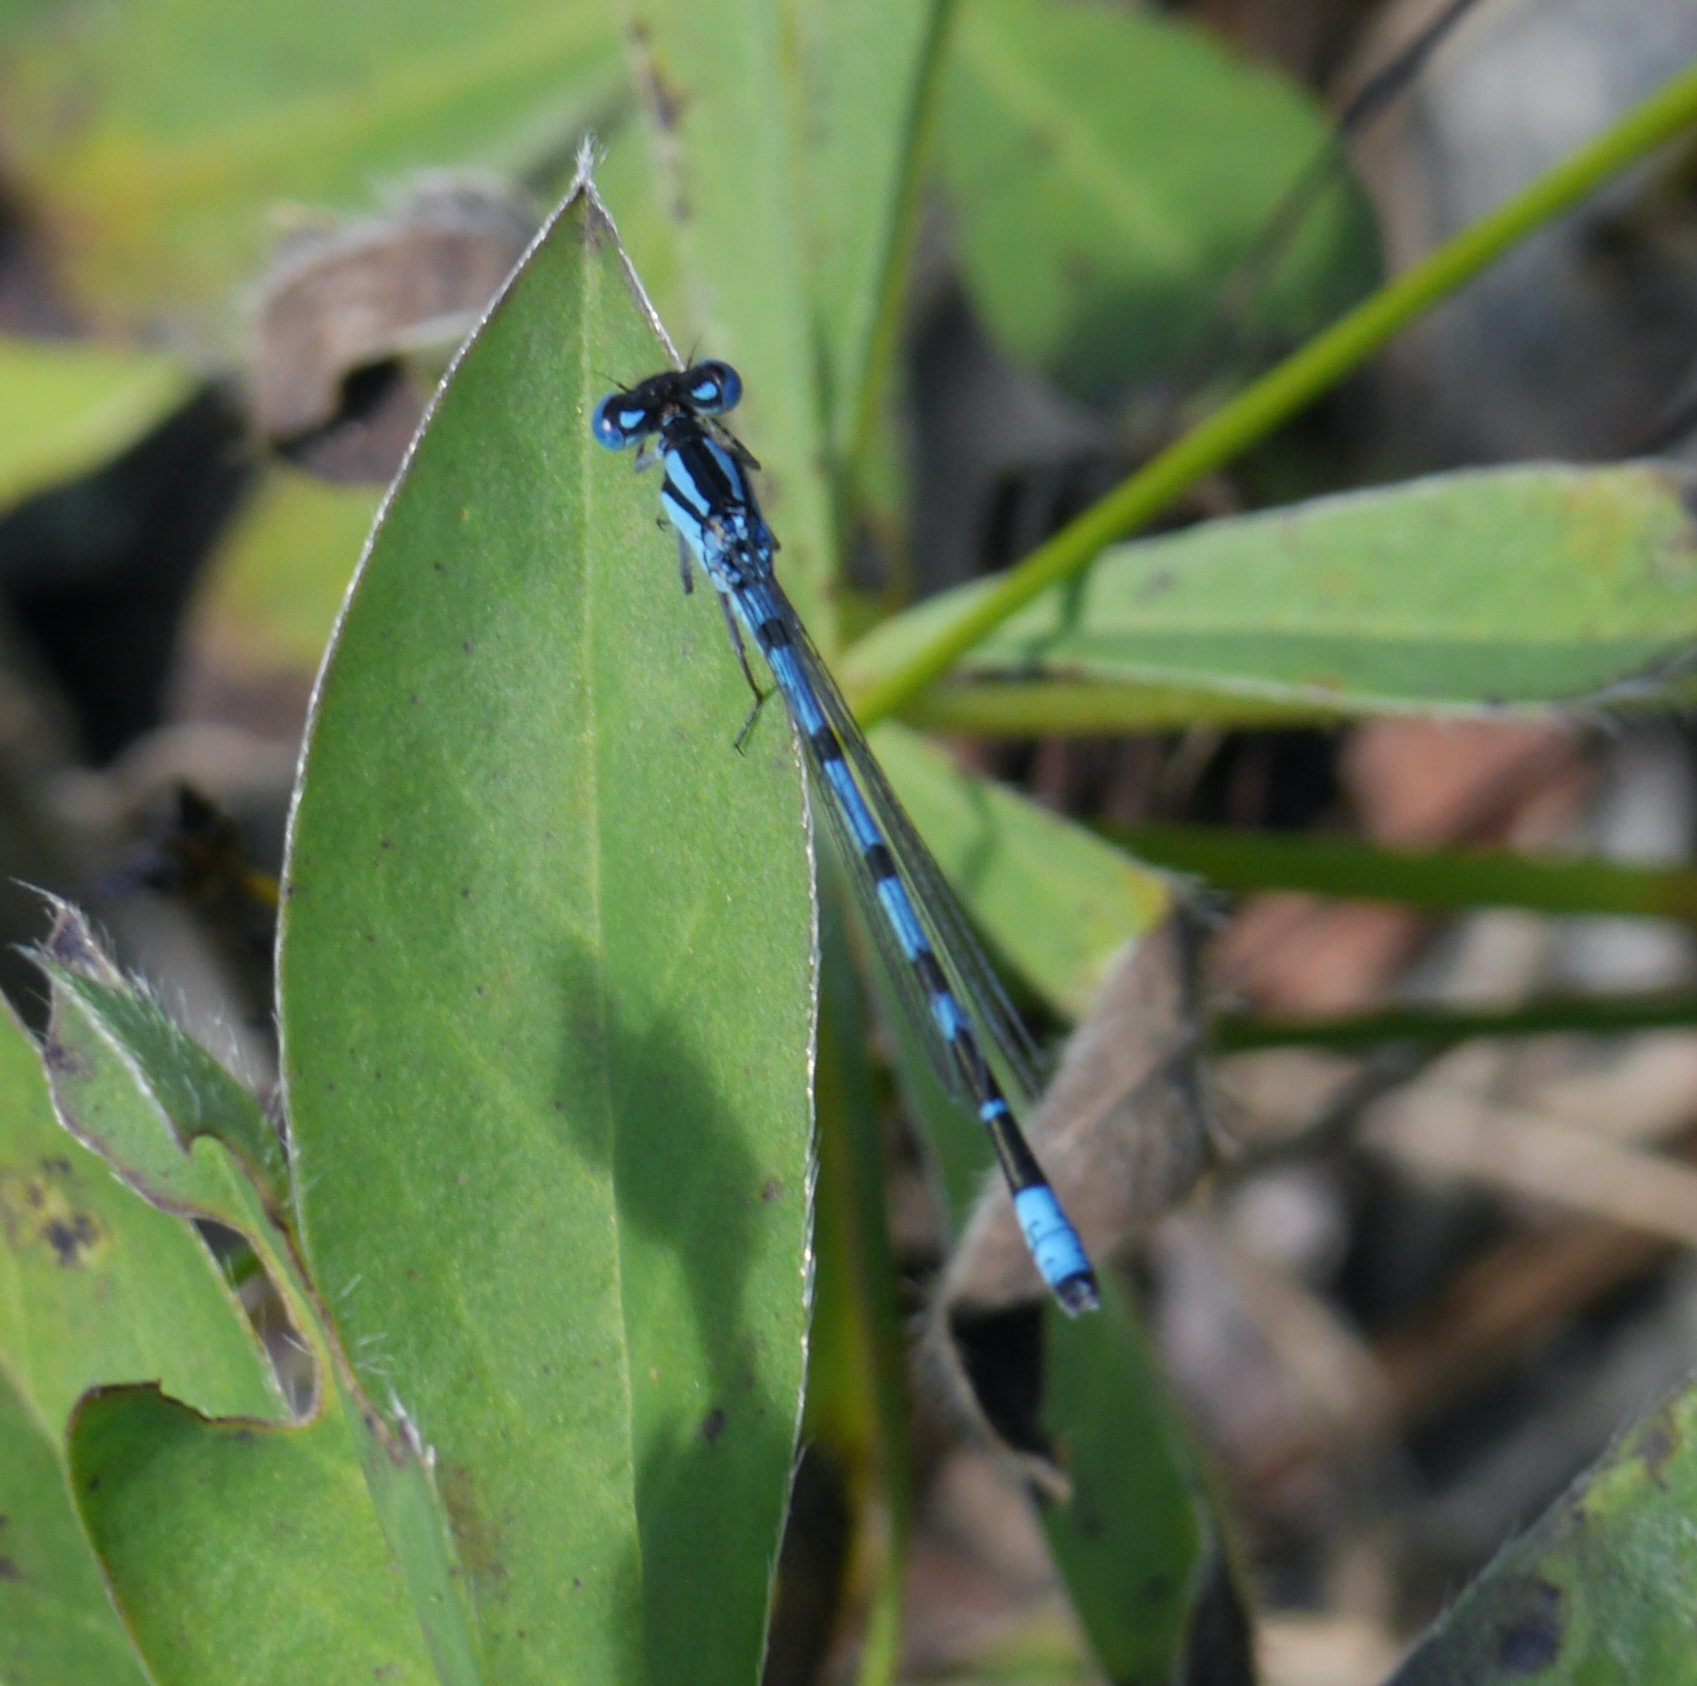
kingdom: Animalia
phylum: Arthropoda
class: Insecta
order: Odonata
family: Coenagrionidae
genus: Enallagma
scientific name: Enallagma cyathigerum
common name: Common blue damselfly
